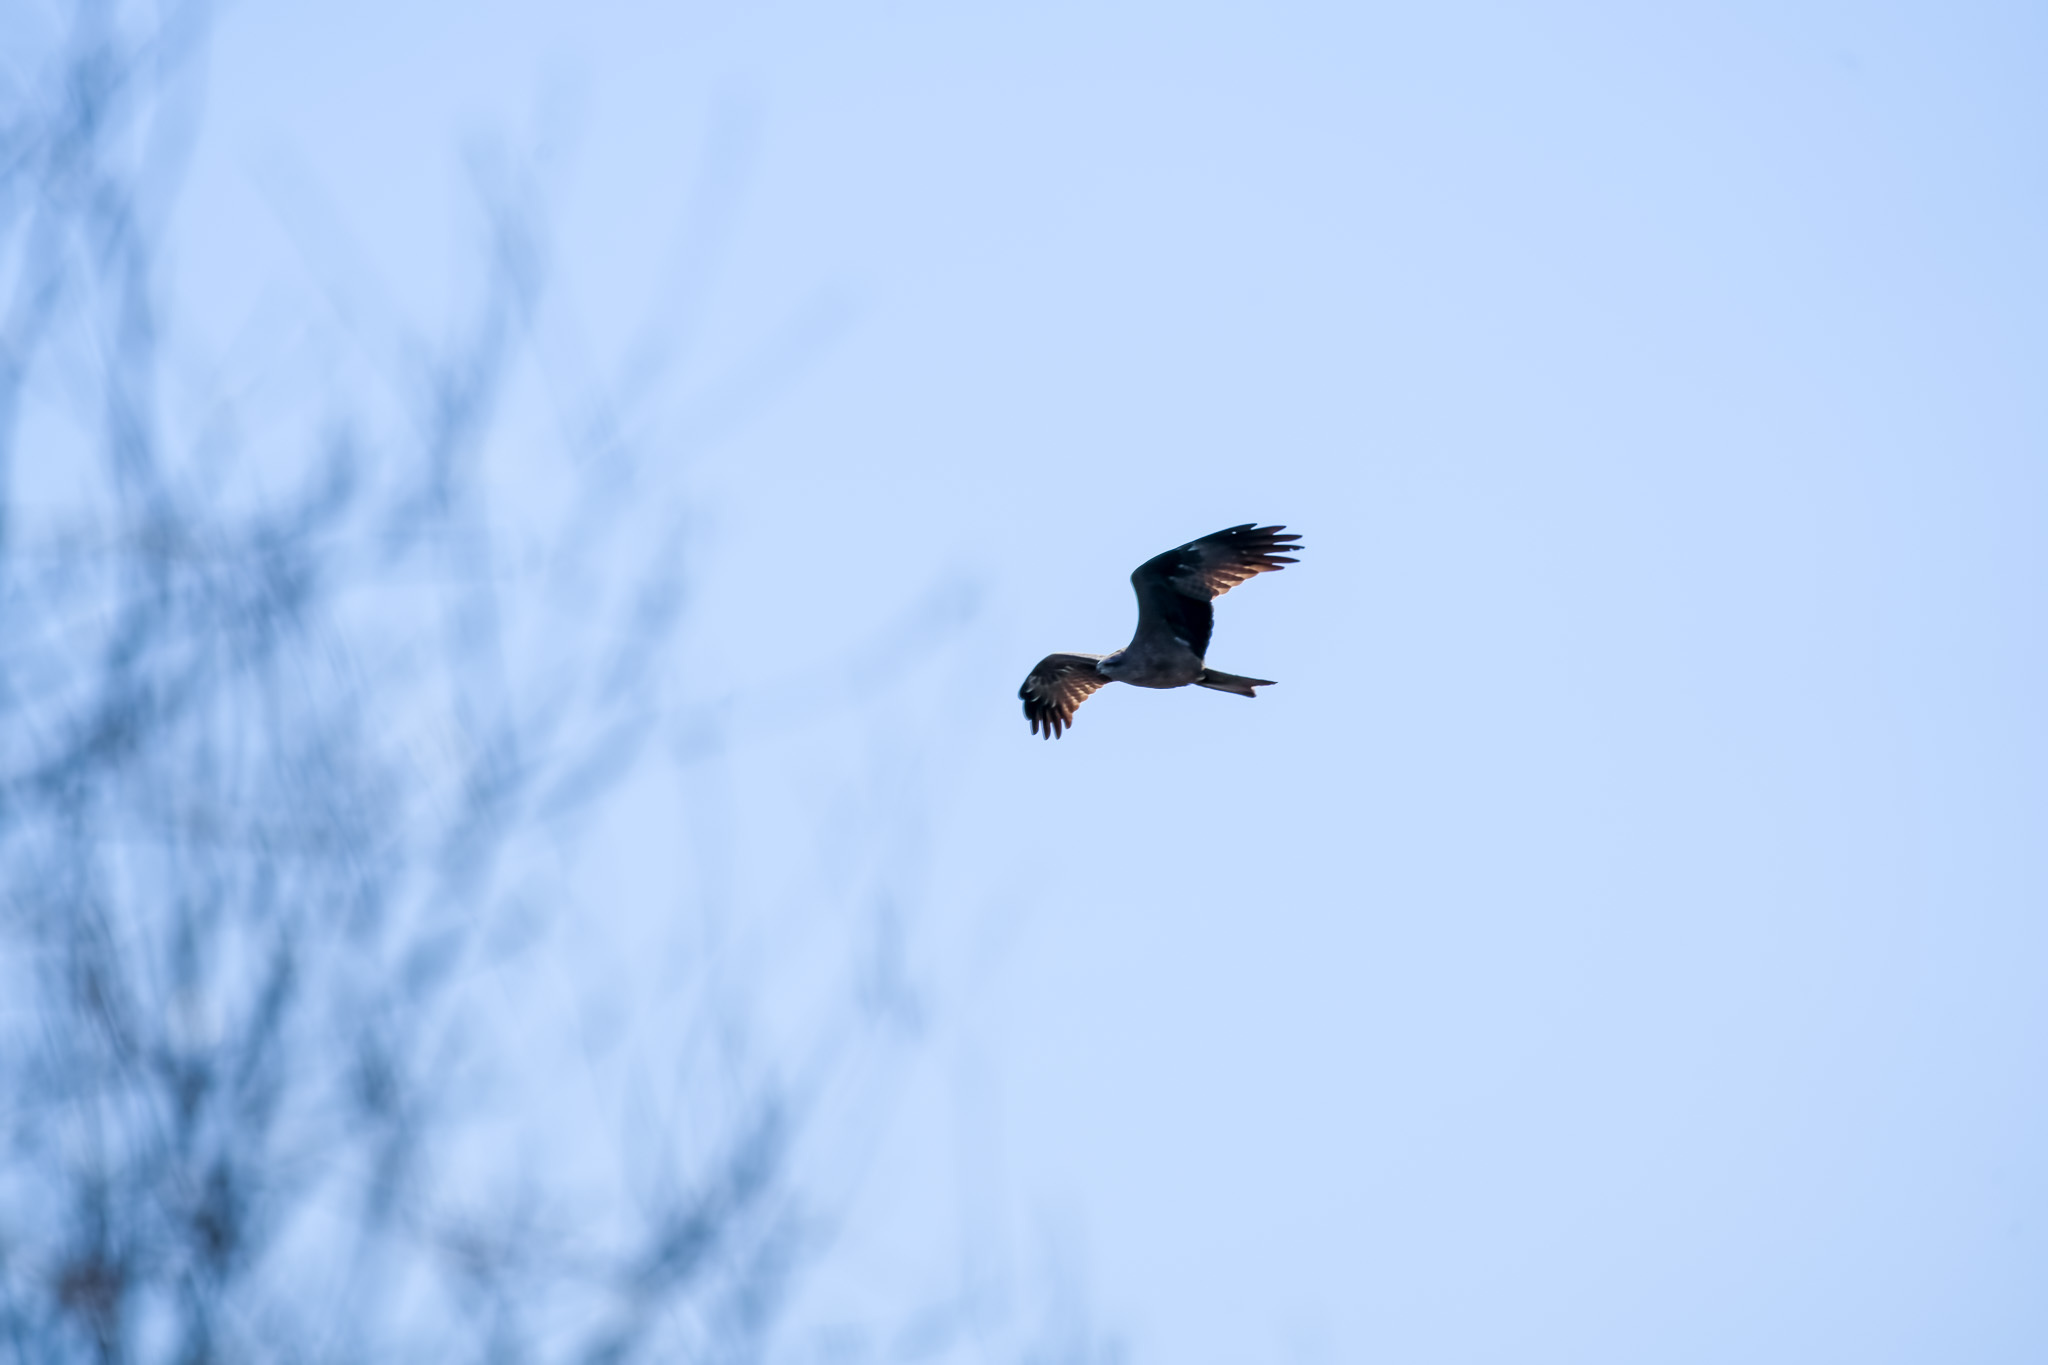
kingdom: Animalia
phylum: Chordata
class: Aves
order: Accipitriformes
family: Accipitridae
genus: Milvus
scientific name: Milvus migrans
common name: Black kite
